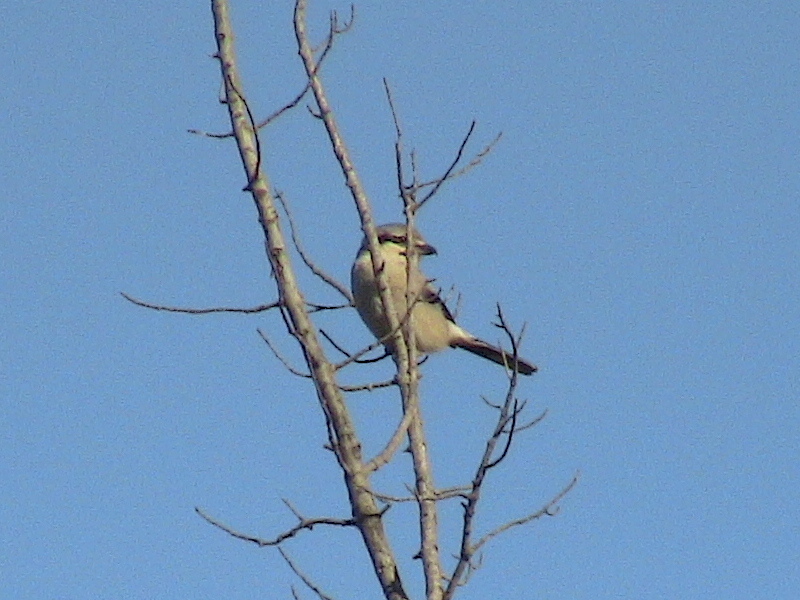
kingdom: Animalia
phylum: Chordata
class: Aves
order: Passeriformes
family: Laniidae
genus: Lanius
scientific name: Lanius borealis
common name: Northern shrike
